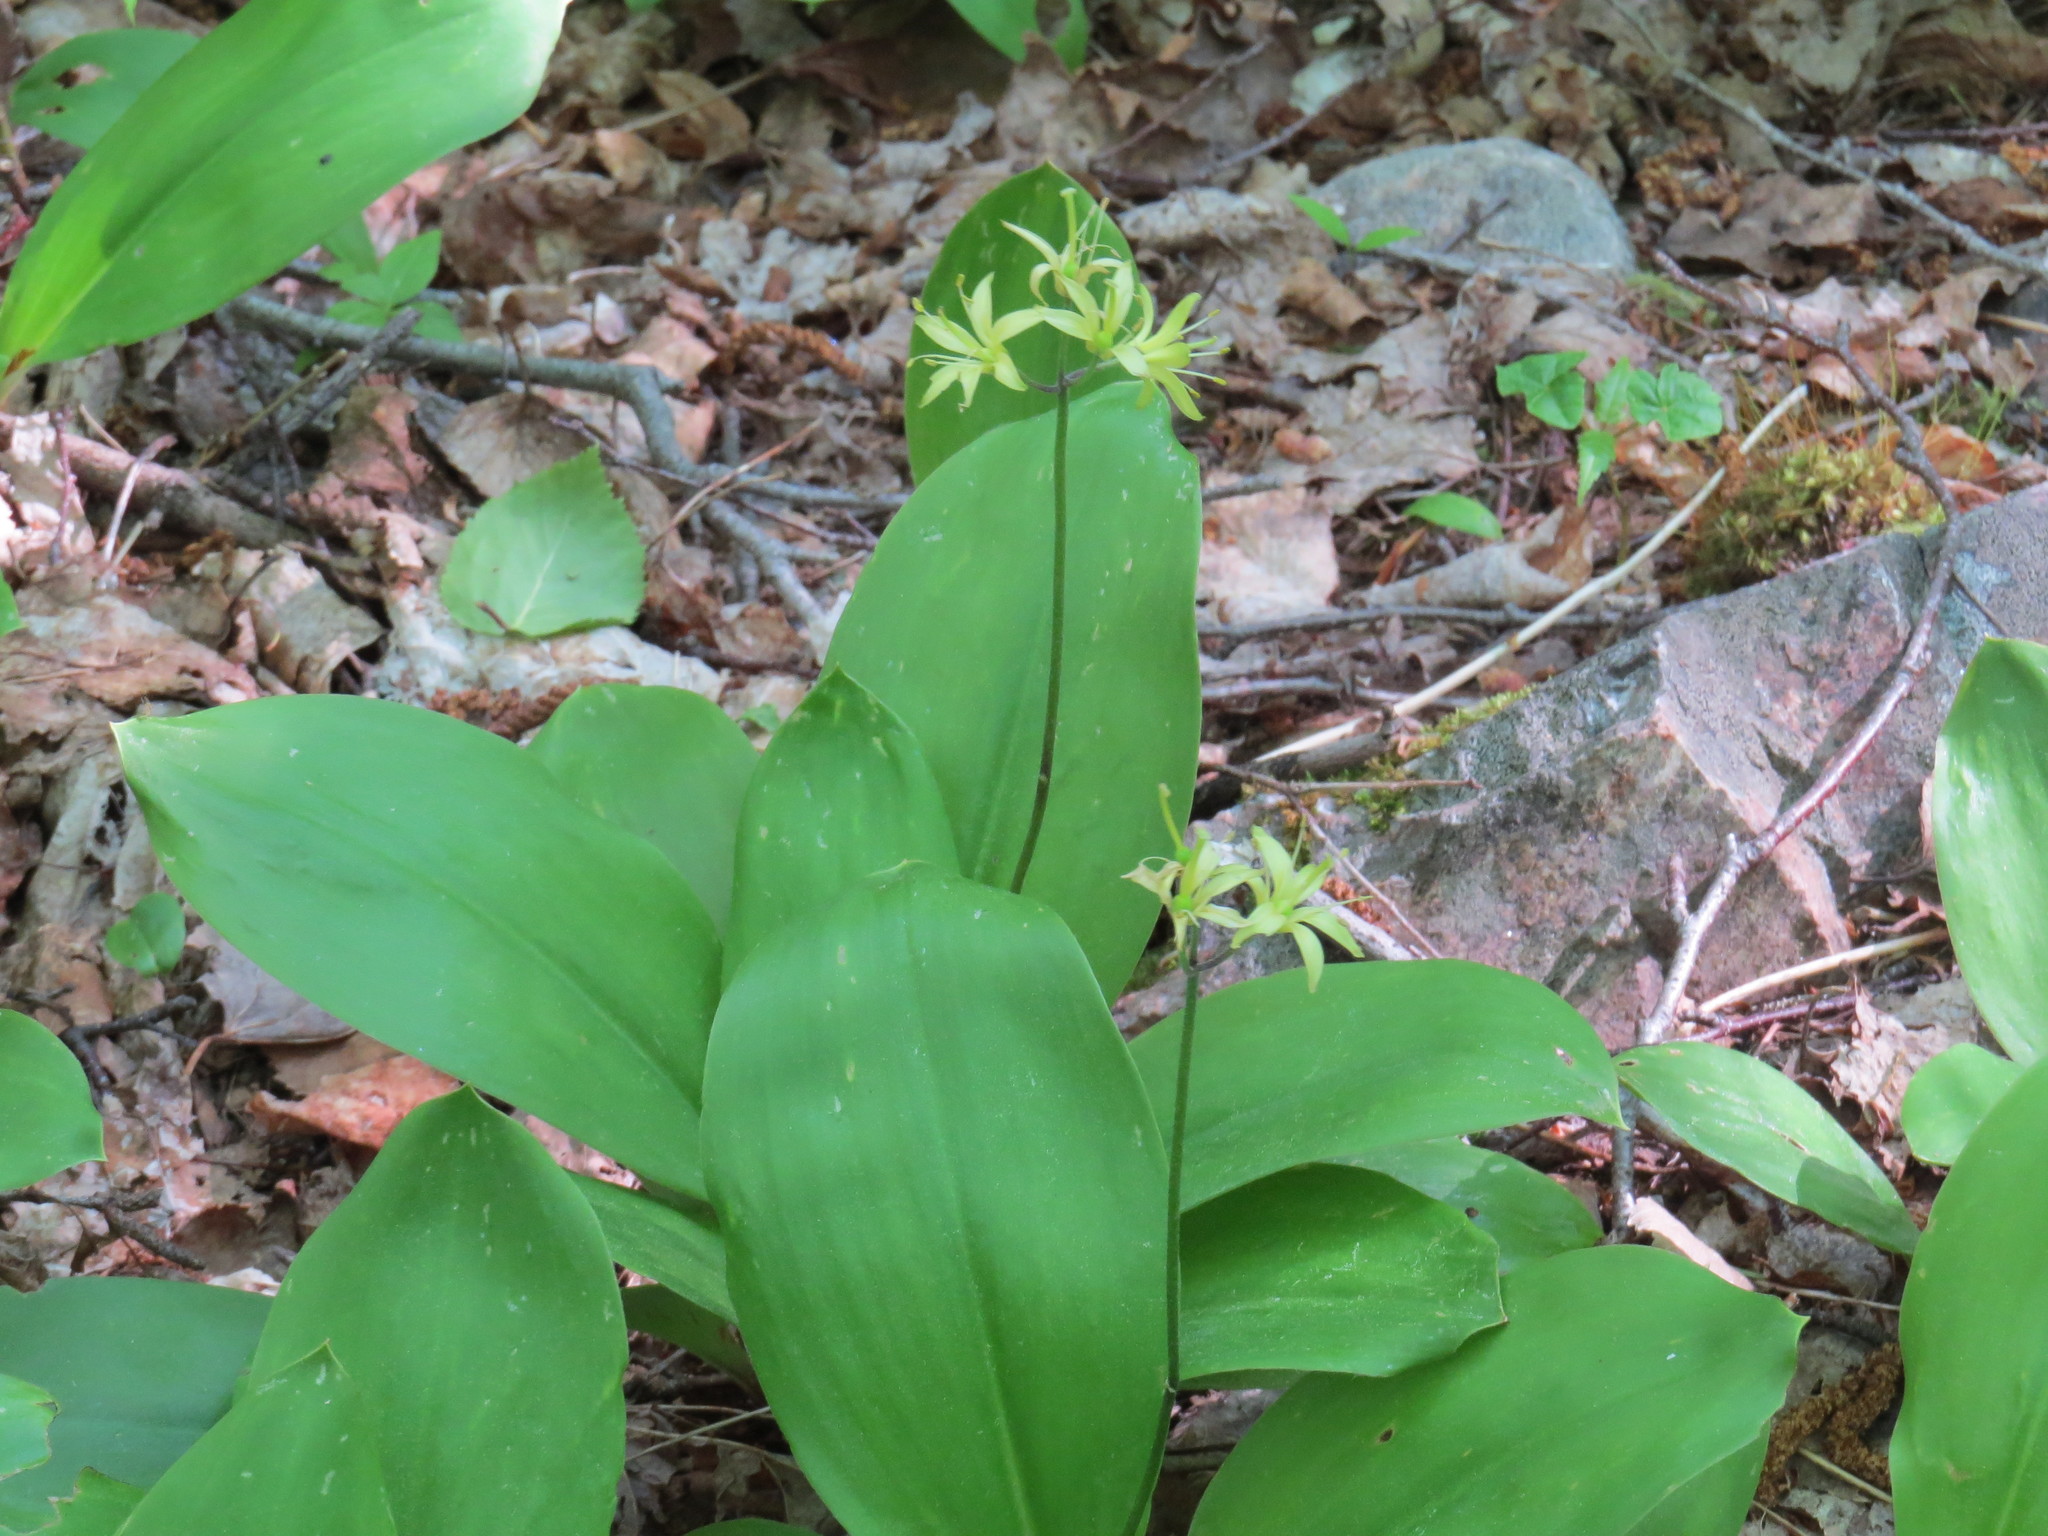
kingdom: Plantae
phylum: Tracheophyta
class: Liliopsida
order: Liliales
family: Liliaceae
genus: Clintonia
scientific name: Clintonia borealis
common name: Yellow clintonia
